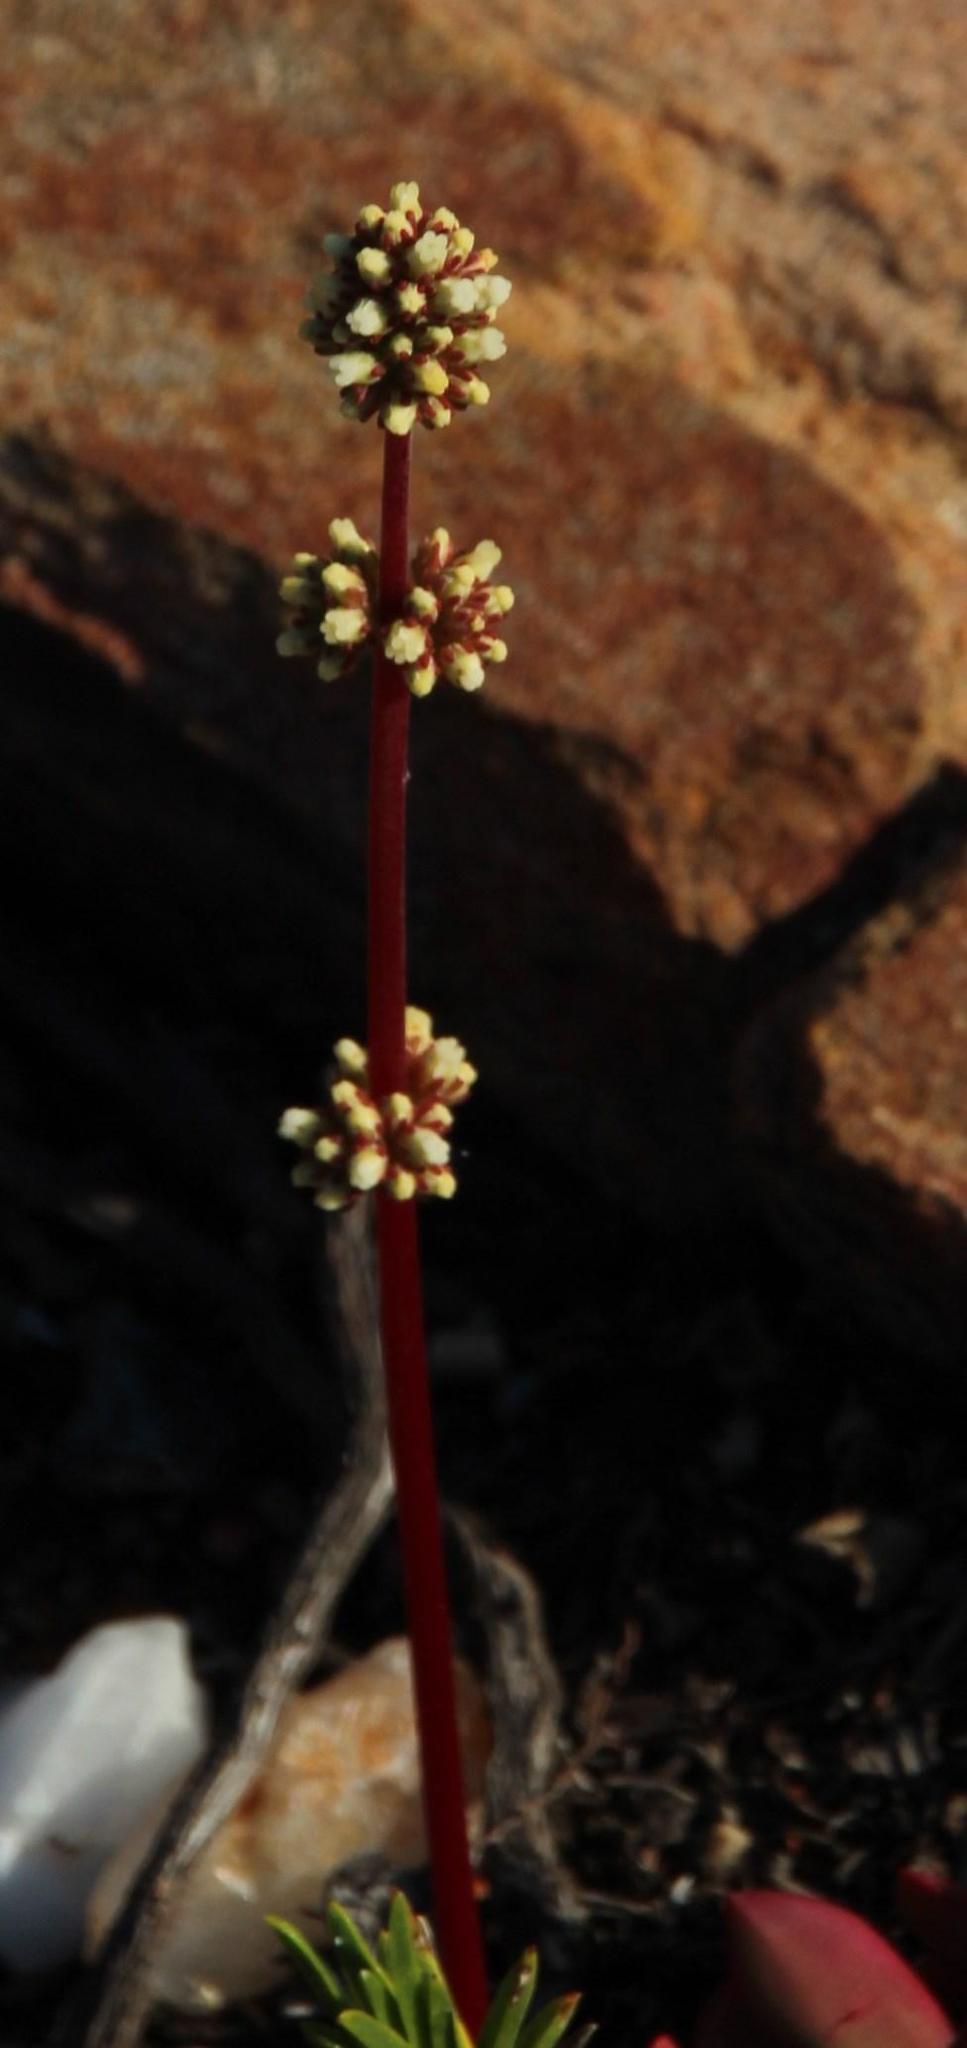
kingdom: Plantae
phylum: Tracheophyta
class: Magnoliopsida
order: Saxifragales
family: Crassulaceae
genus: Crassula
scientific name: Crassula clavata
